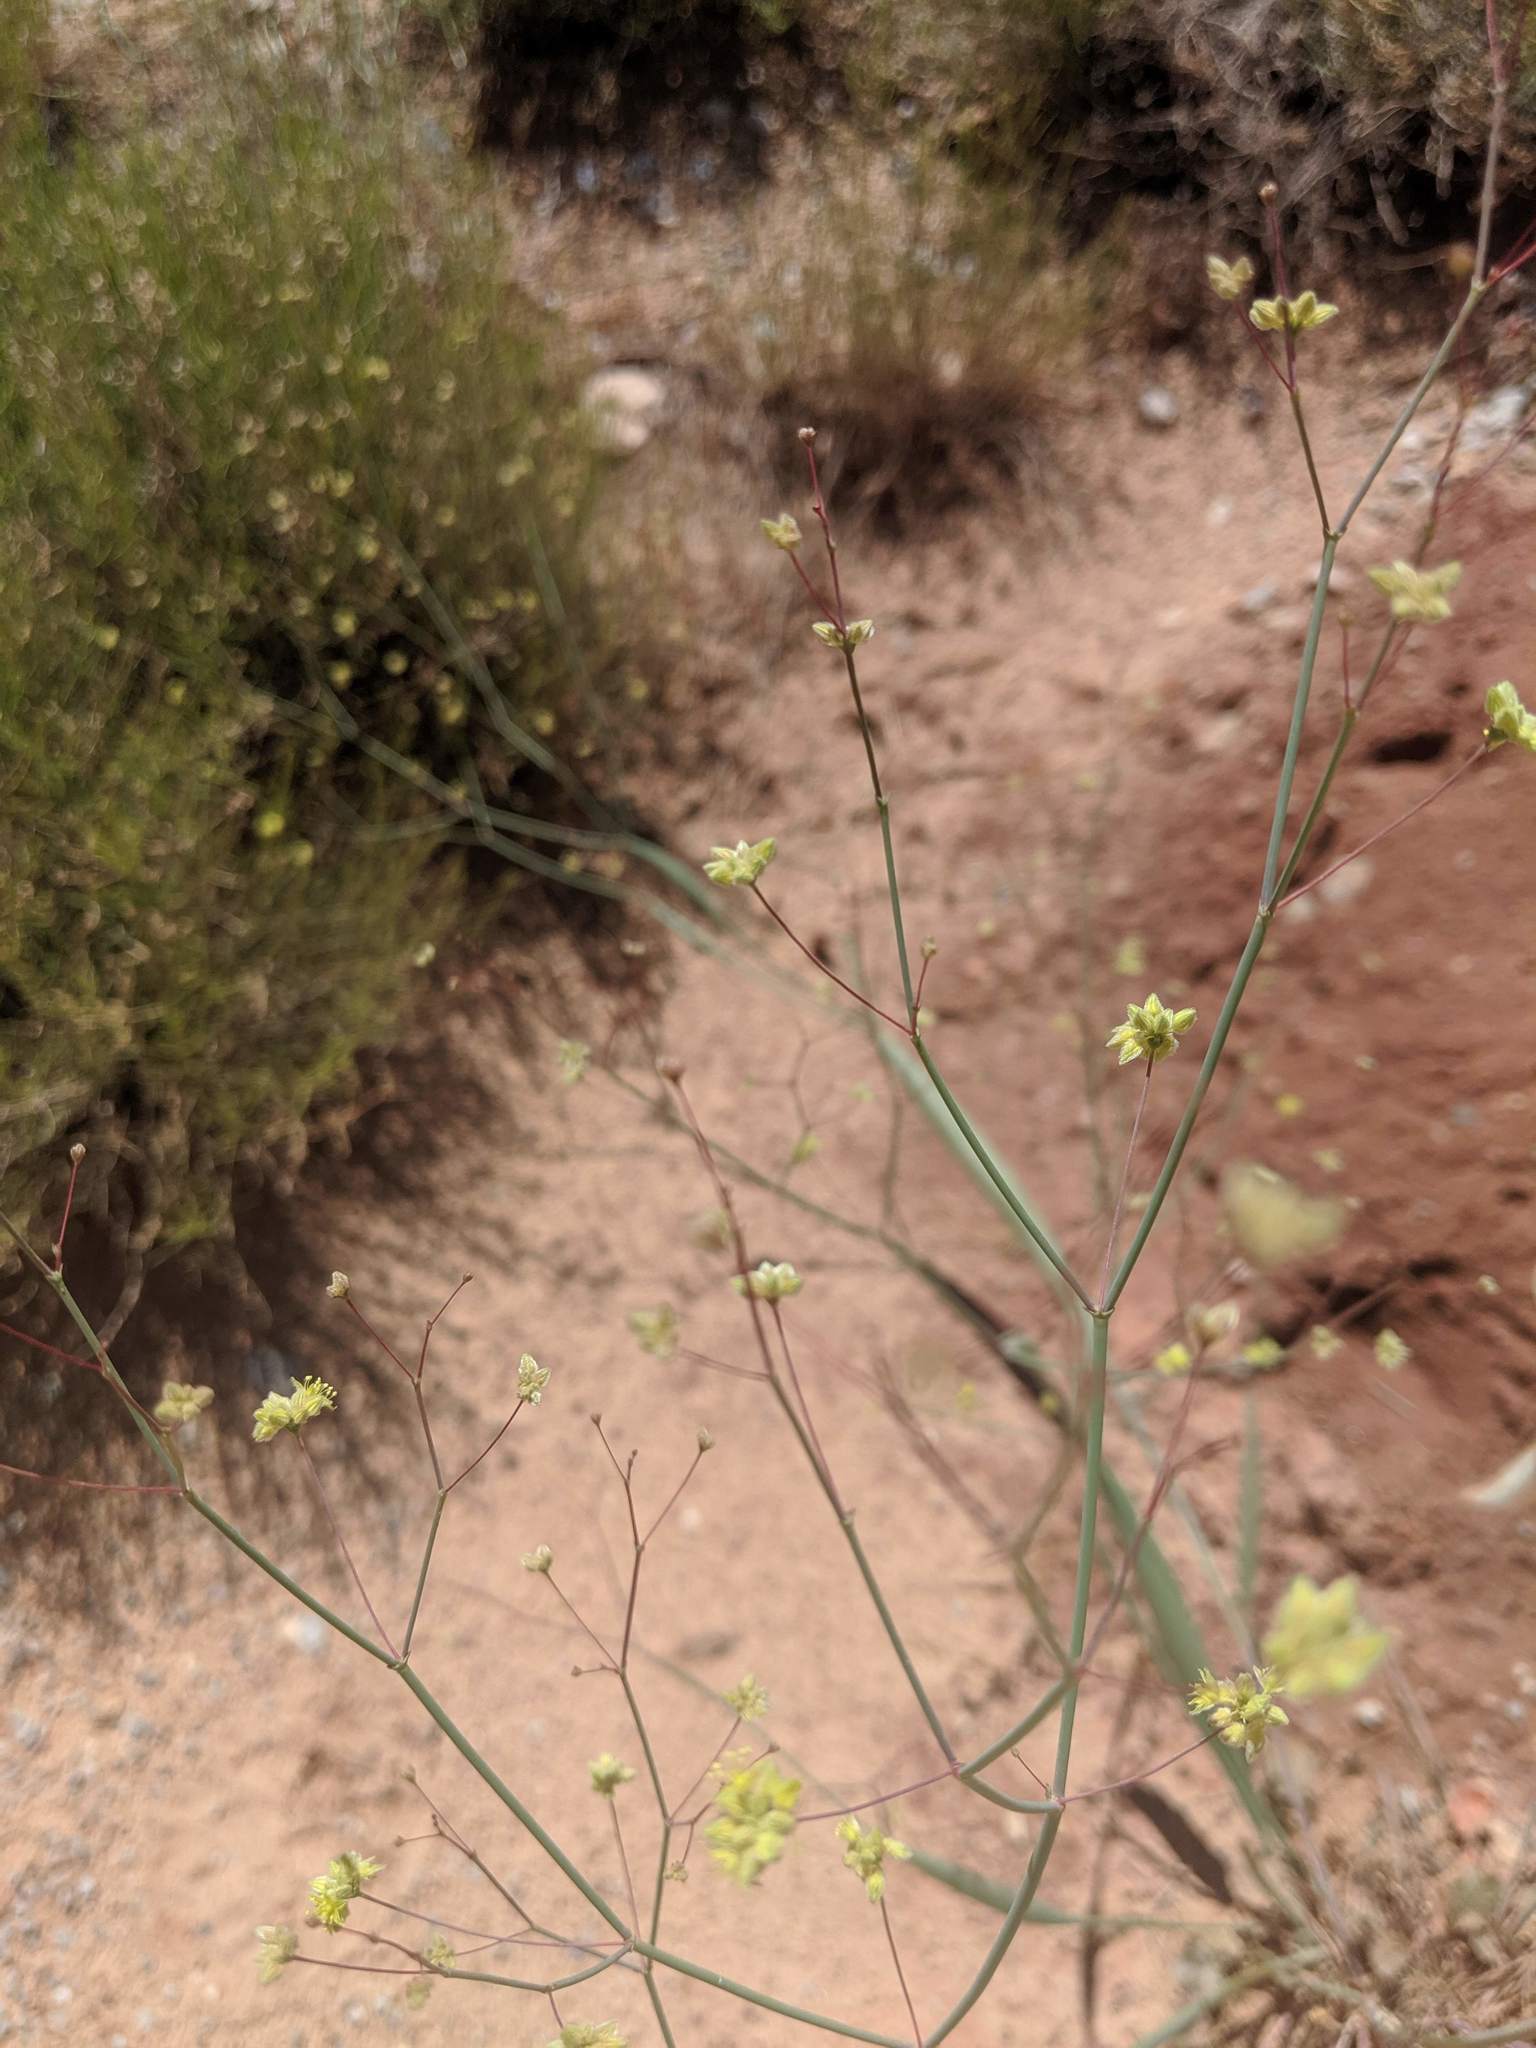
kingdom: Plantae
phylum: Tracheophyta
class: Magnoliopsida
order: Caryophyllales
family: Polygonaceae
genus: Eriogonum
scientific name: Eriogonum inflatum
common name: Desert trumpet
